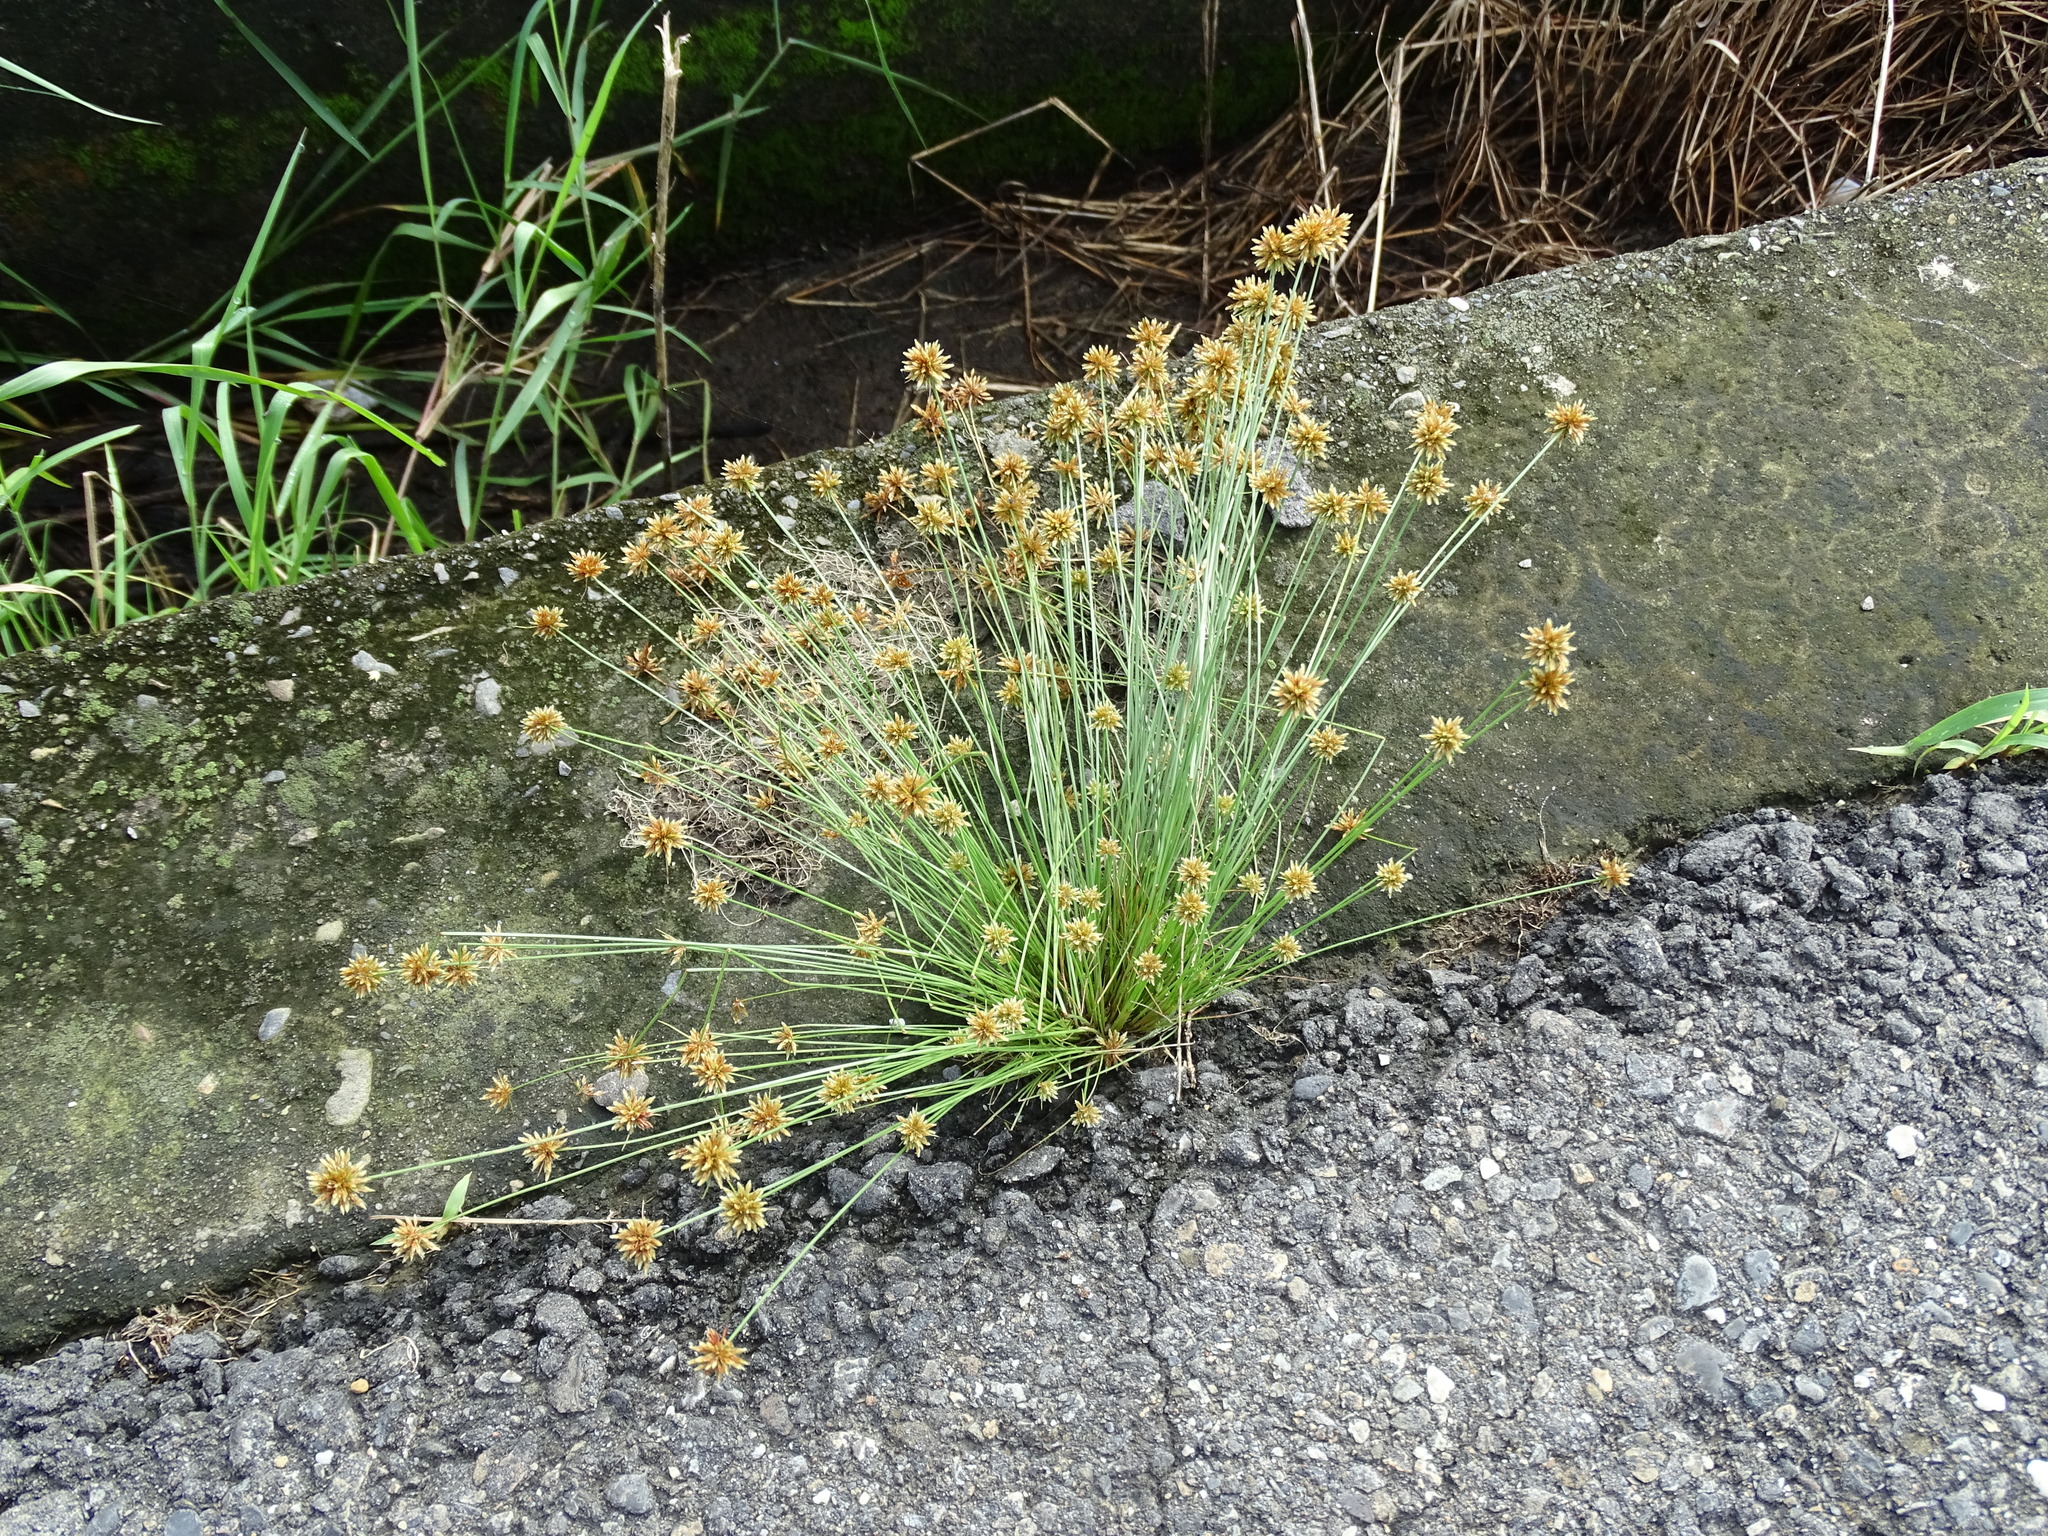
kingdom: Plantae
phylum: Tracheophyta
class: Liliopsida
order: Poales
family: Cyperaceae
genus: Bulbostylis
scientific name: Bulbostylis barbata
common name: Watergrass
